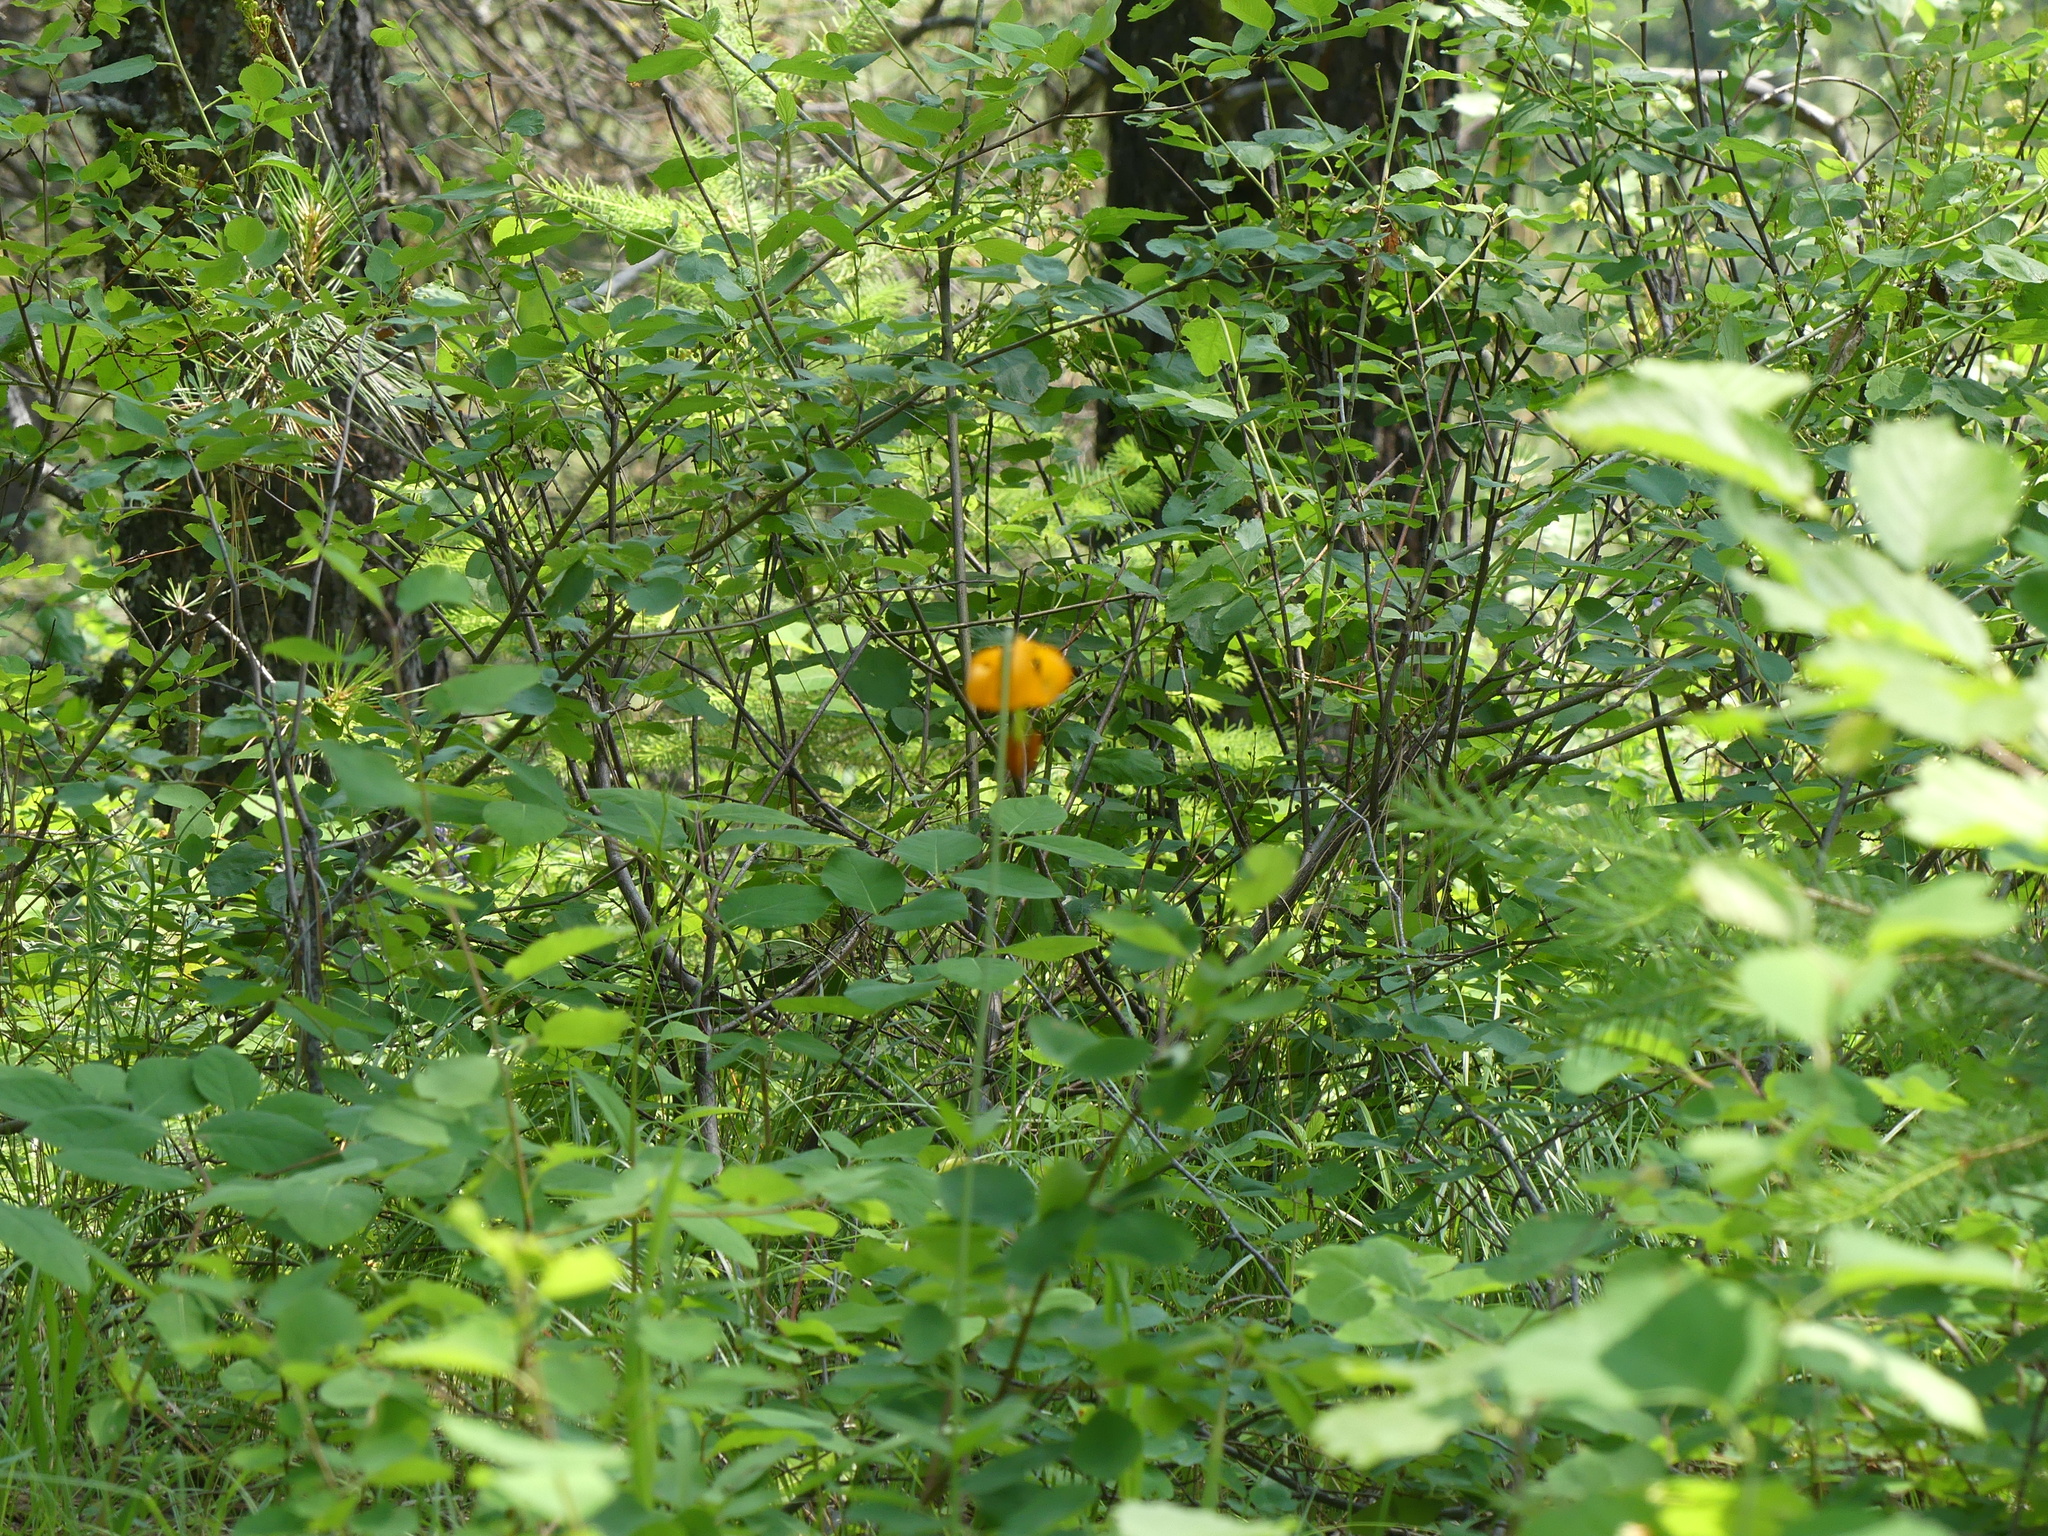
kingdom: Plantae
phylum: Tracheophyta
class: Liliopsida
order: Liliales
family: Liliaceae
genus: Lilium
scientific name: Lilium columbianum
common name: Columbia lily
